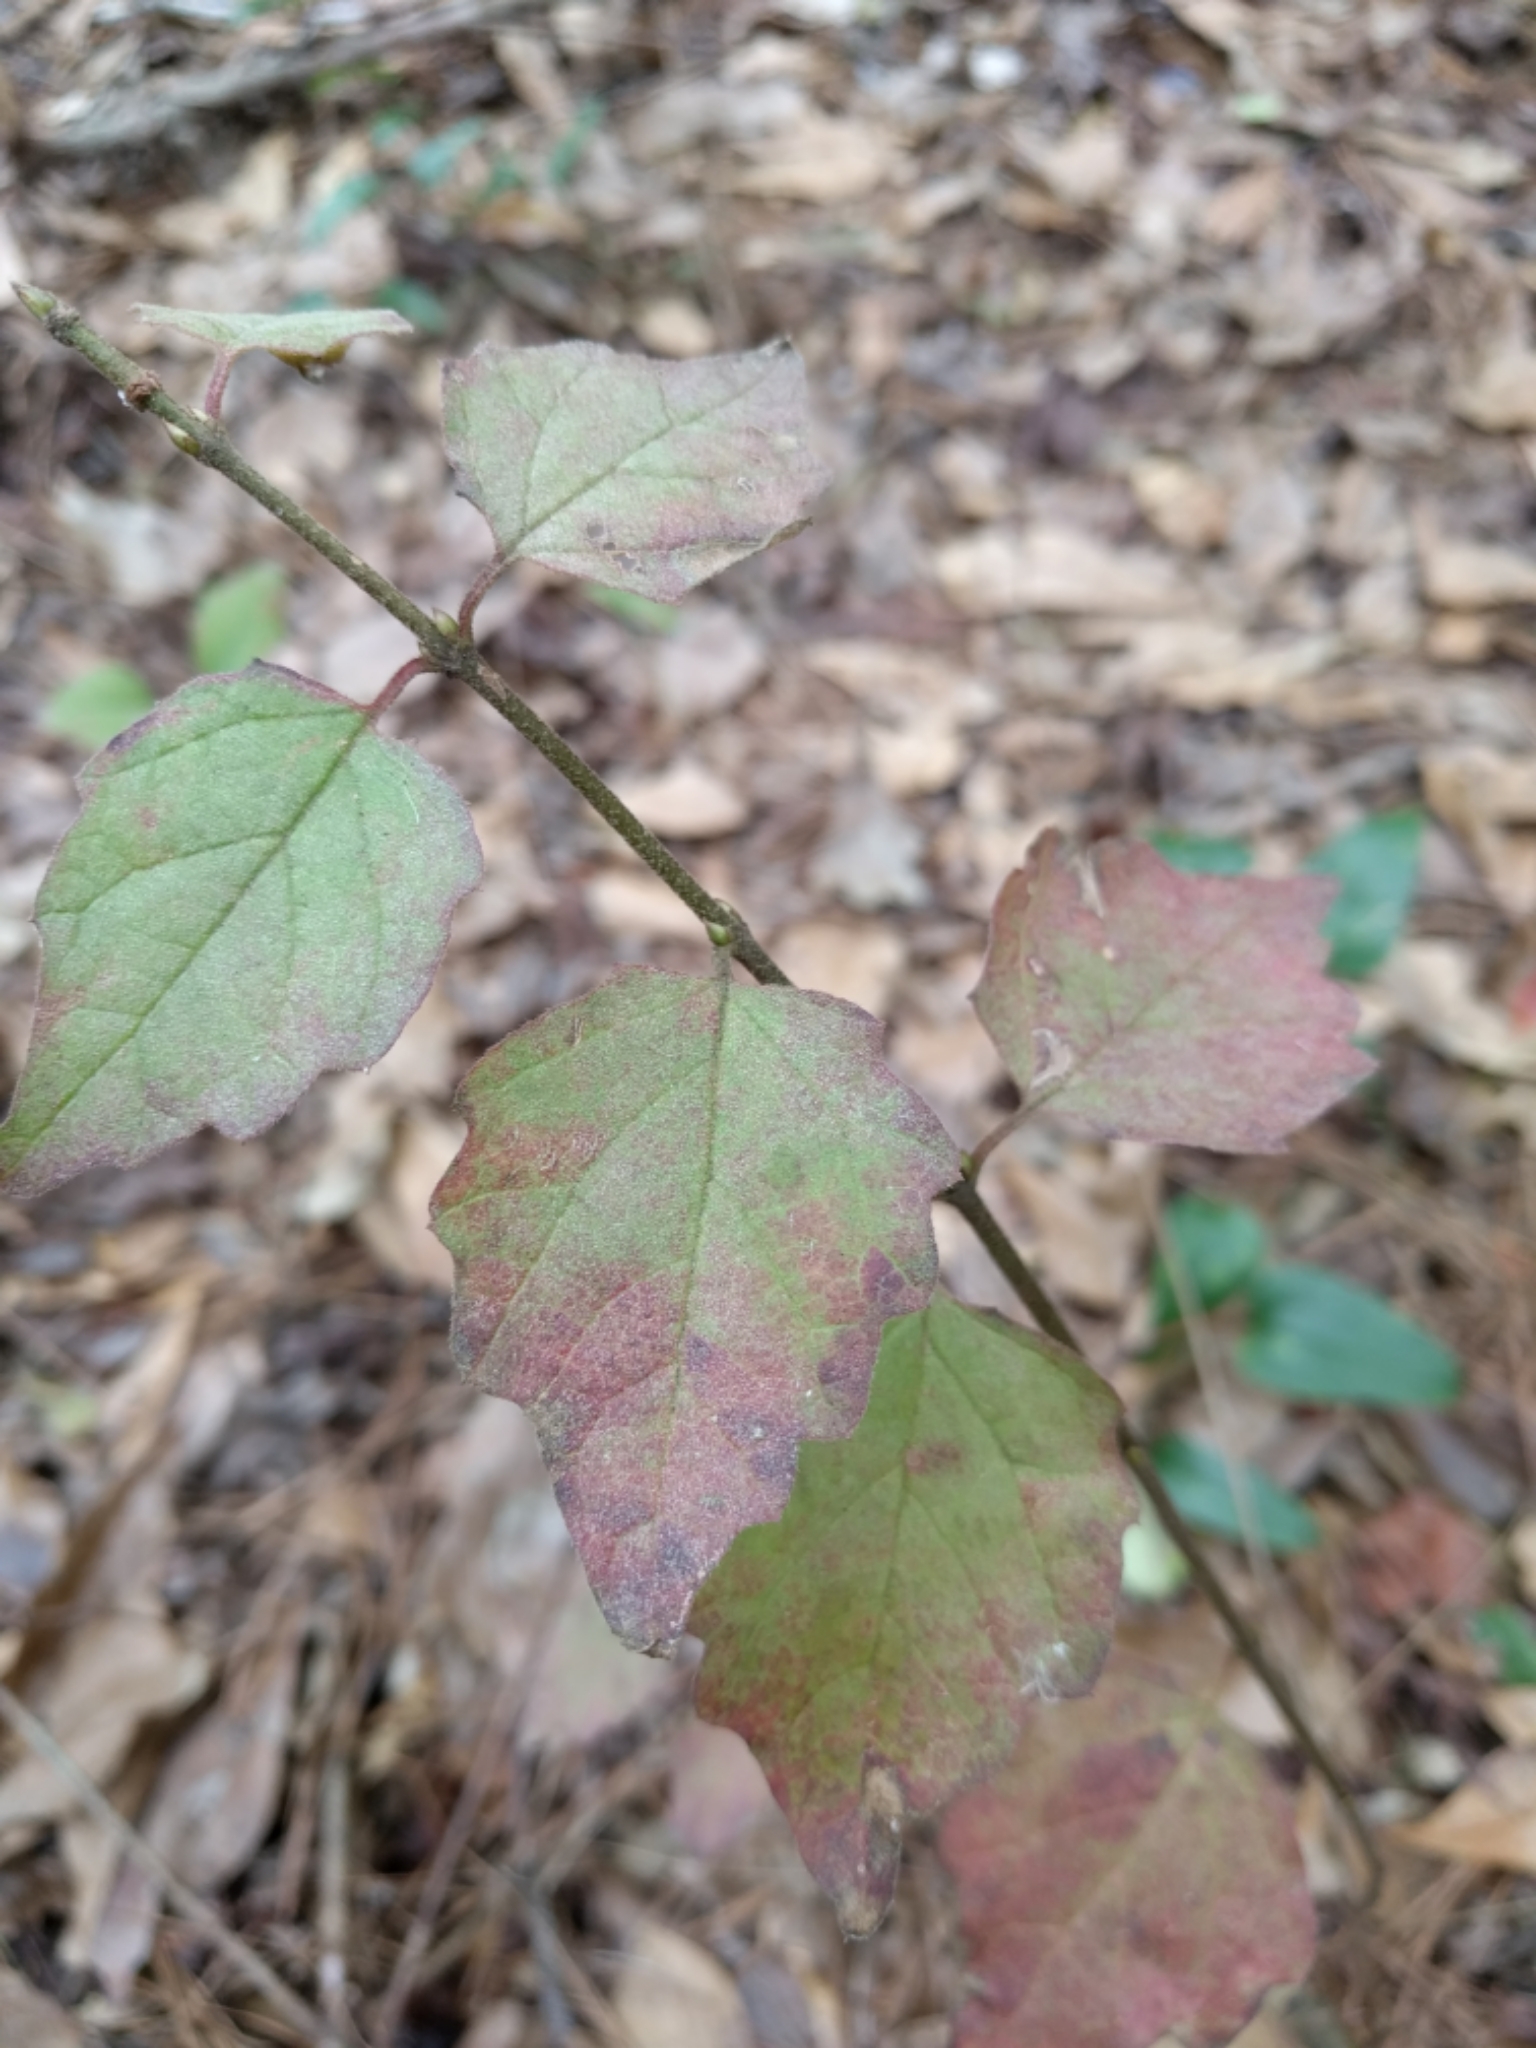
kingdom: Plantae
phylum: Tracheophyta
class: Magnoliopsida
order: Dipsacales
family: Viburnaceae
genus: Viburnum
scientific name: Viburnum scabrellum
